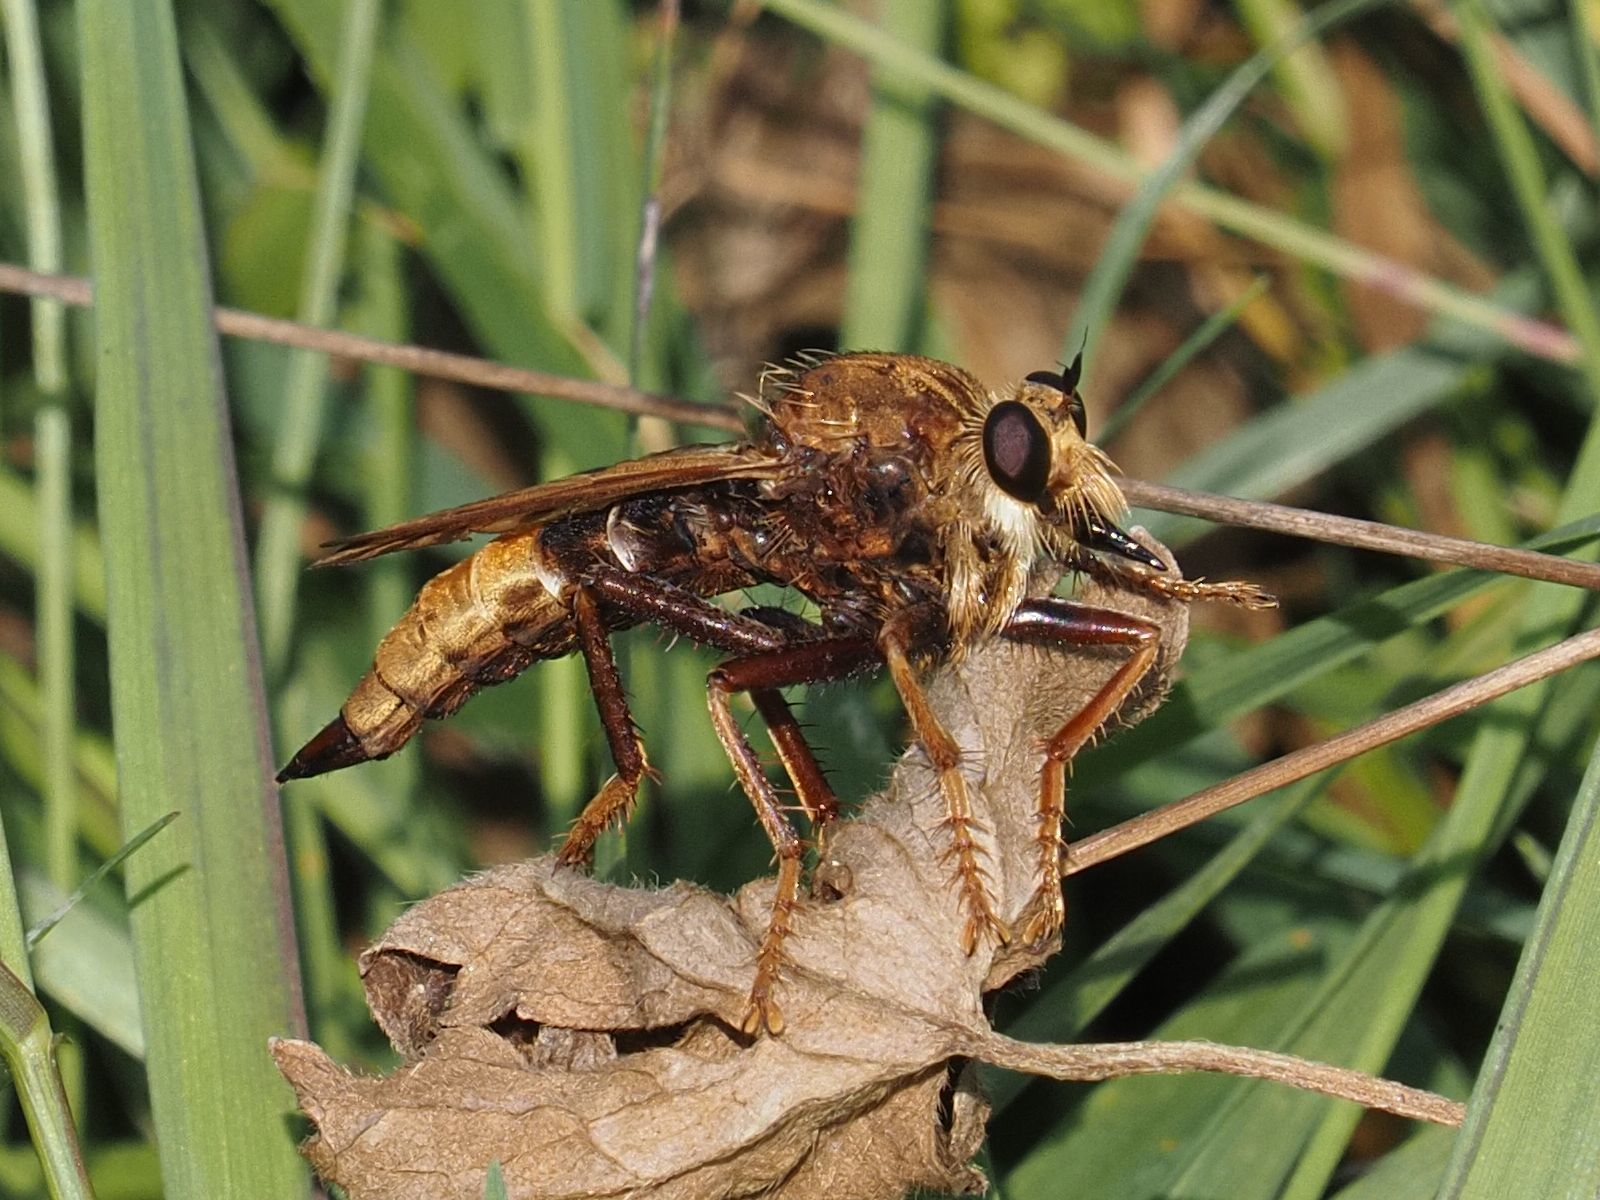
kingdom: Animalia
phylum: Arthropoda
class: Insecta
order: Diptera
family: Asilidae
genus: Asilus
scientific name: Asilus crabroniformis
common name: Hornet robberfly
